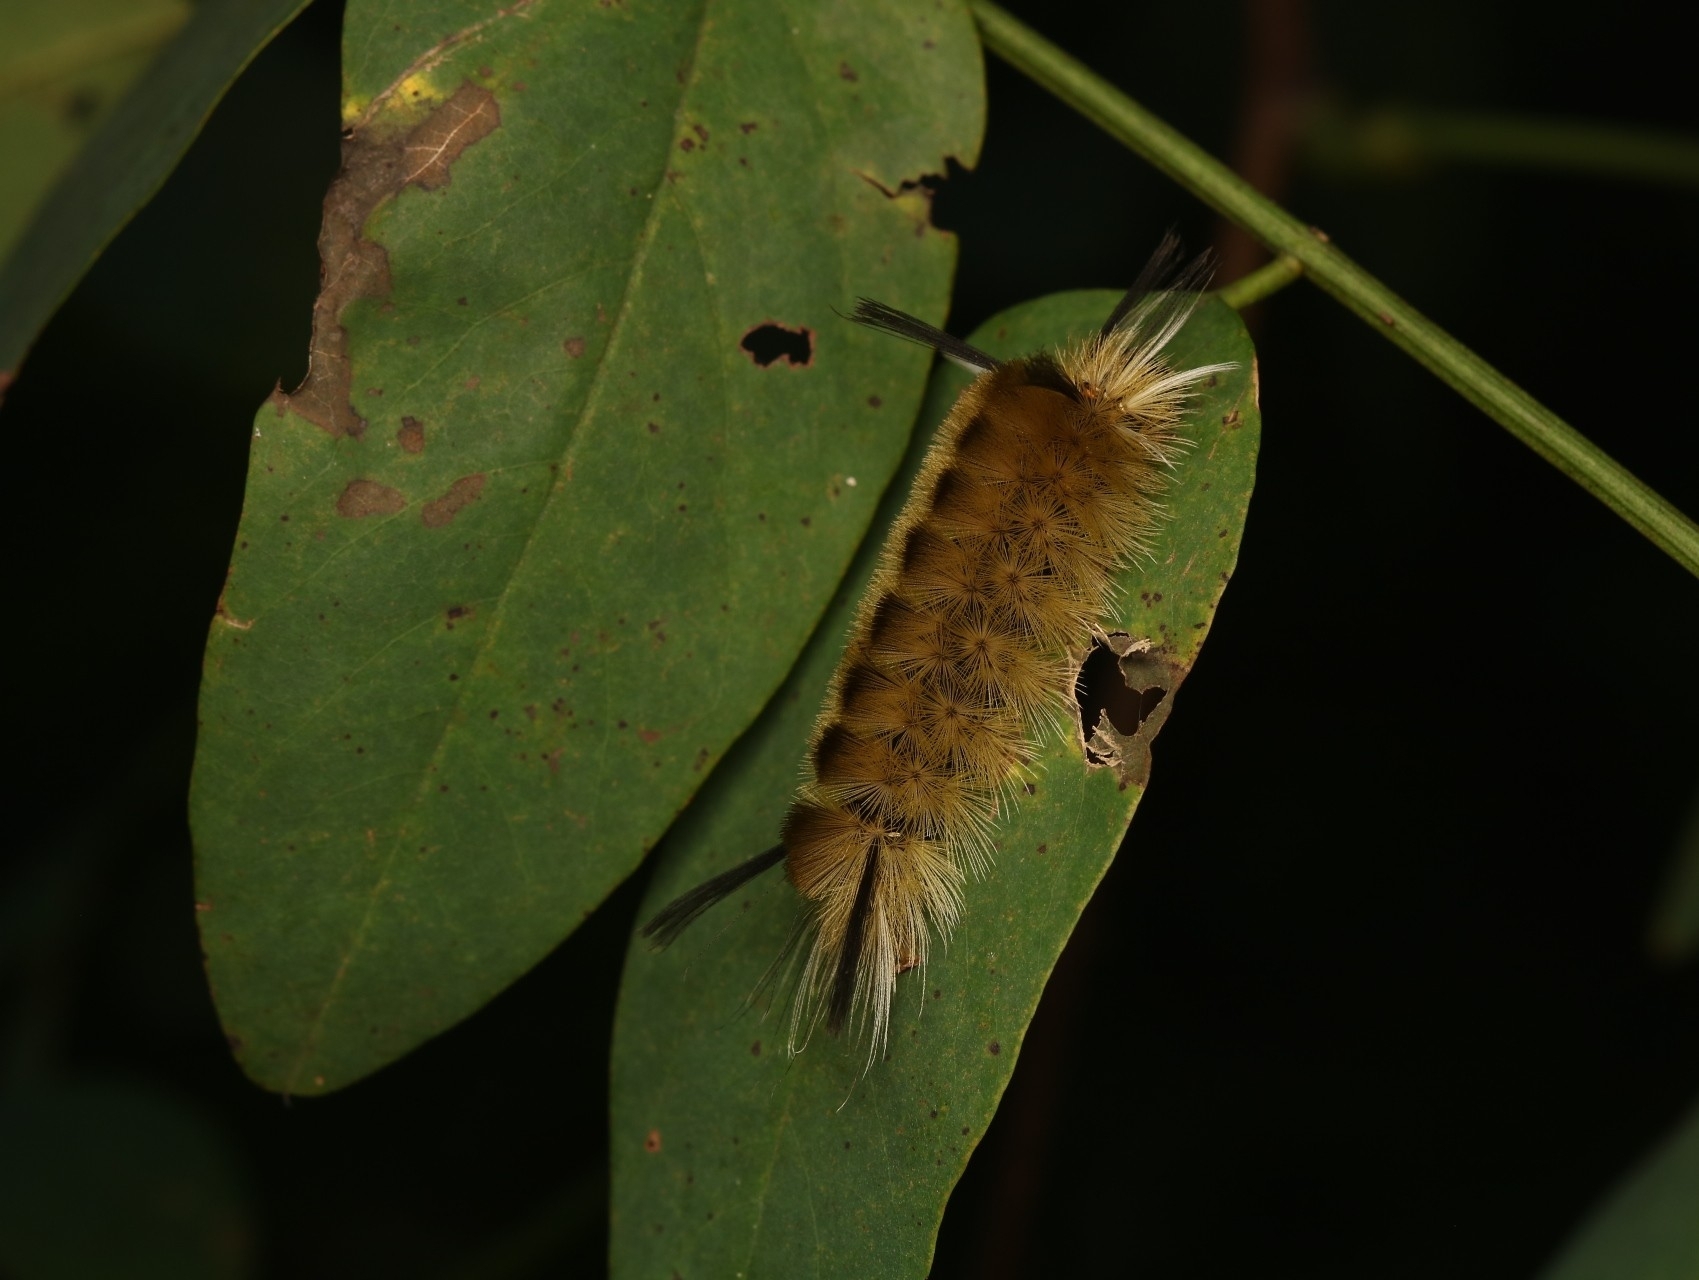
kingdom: Animalia
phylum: Arthropoda
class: Insecta
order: Lepidoptera
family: Erebidae
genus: Halysidota
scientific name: Halysidota tessellaris
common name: Banded tussock moth
